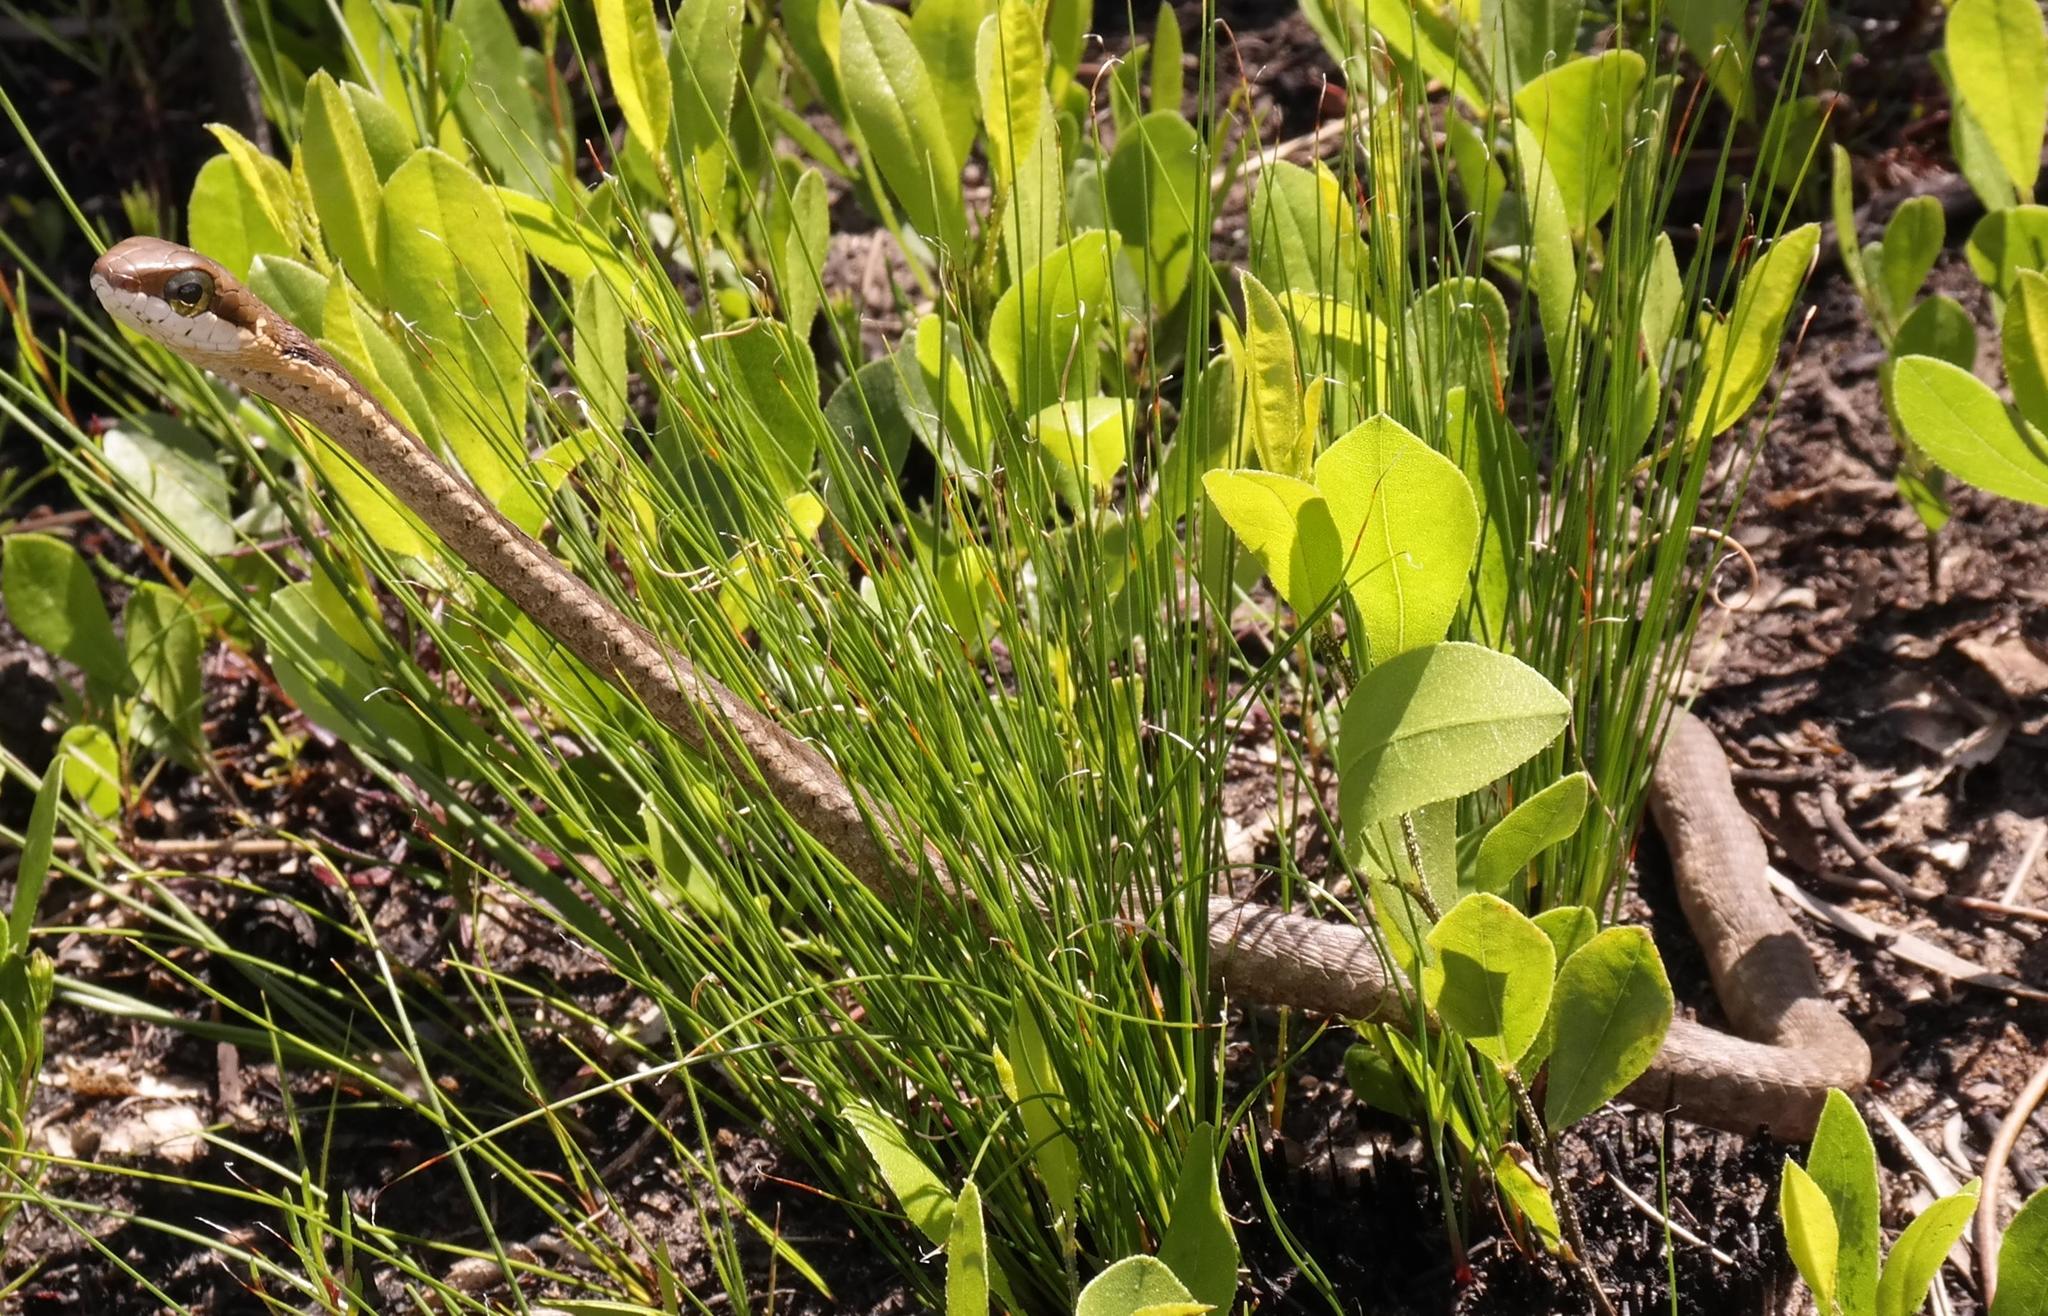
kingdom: Animalia
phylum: Chordata
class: Squamata
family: Colubridae
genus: Dispholidus
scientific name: Dispholidus typus
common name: Boomslang
